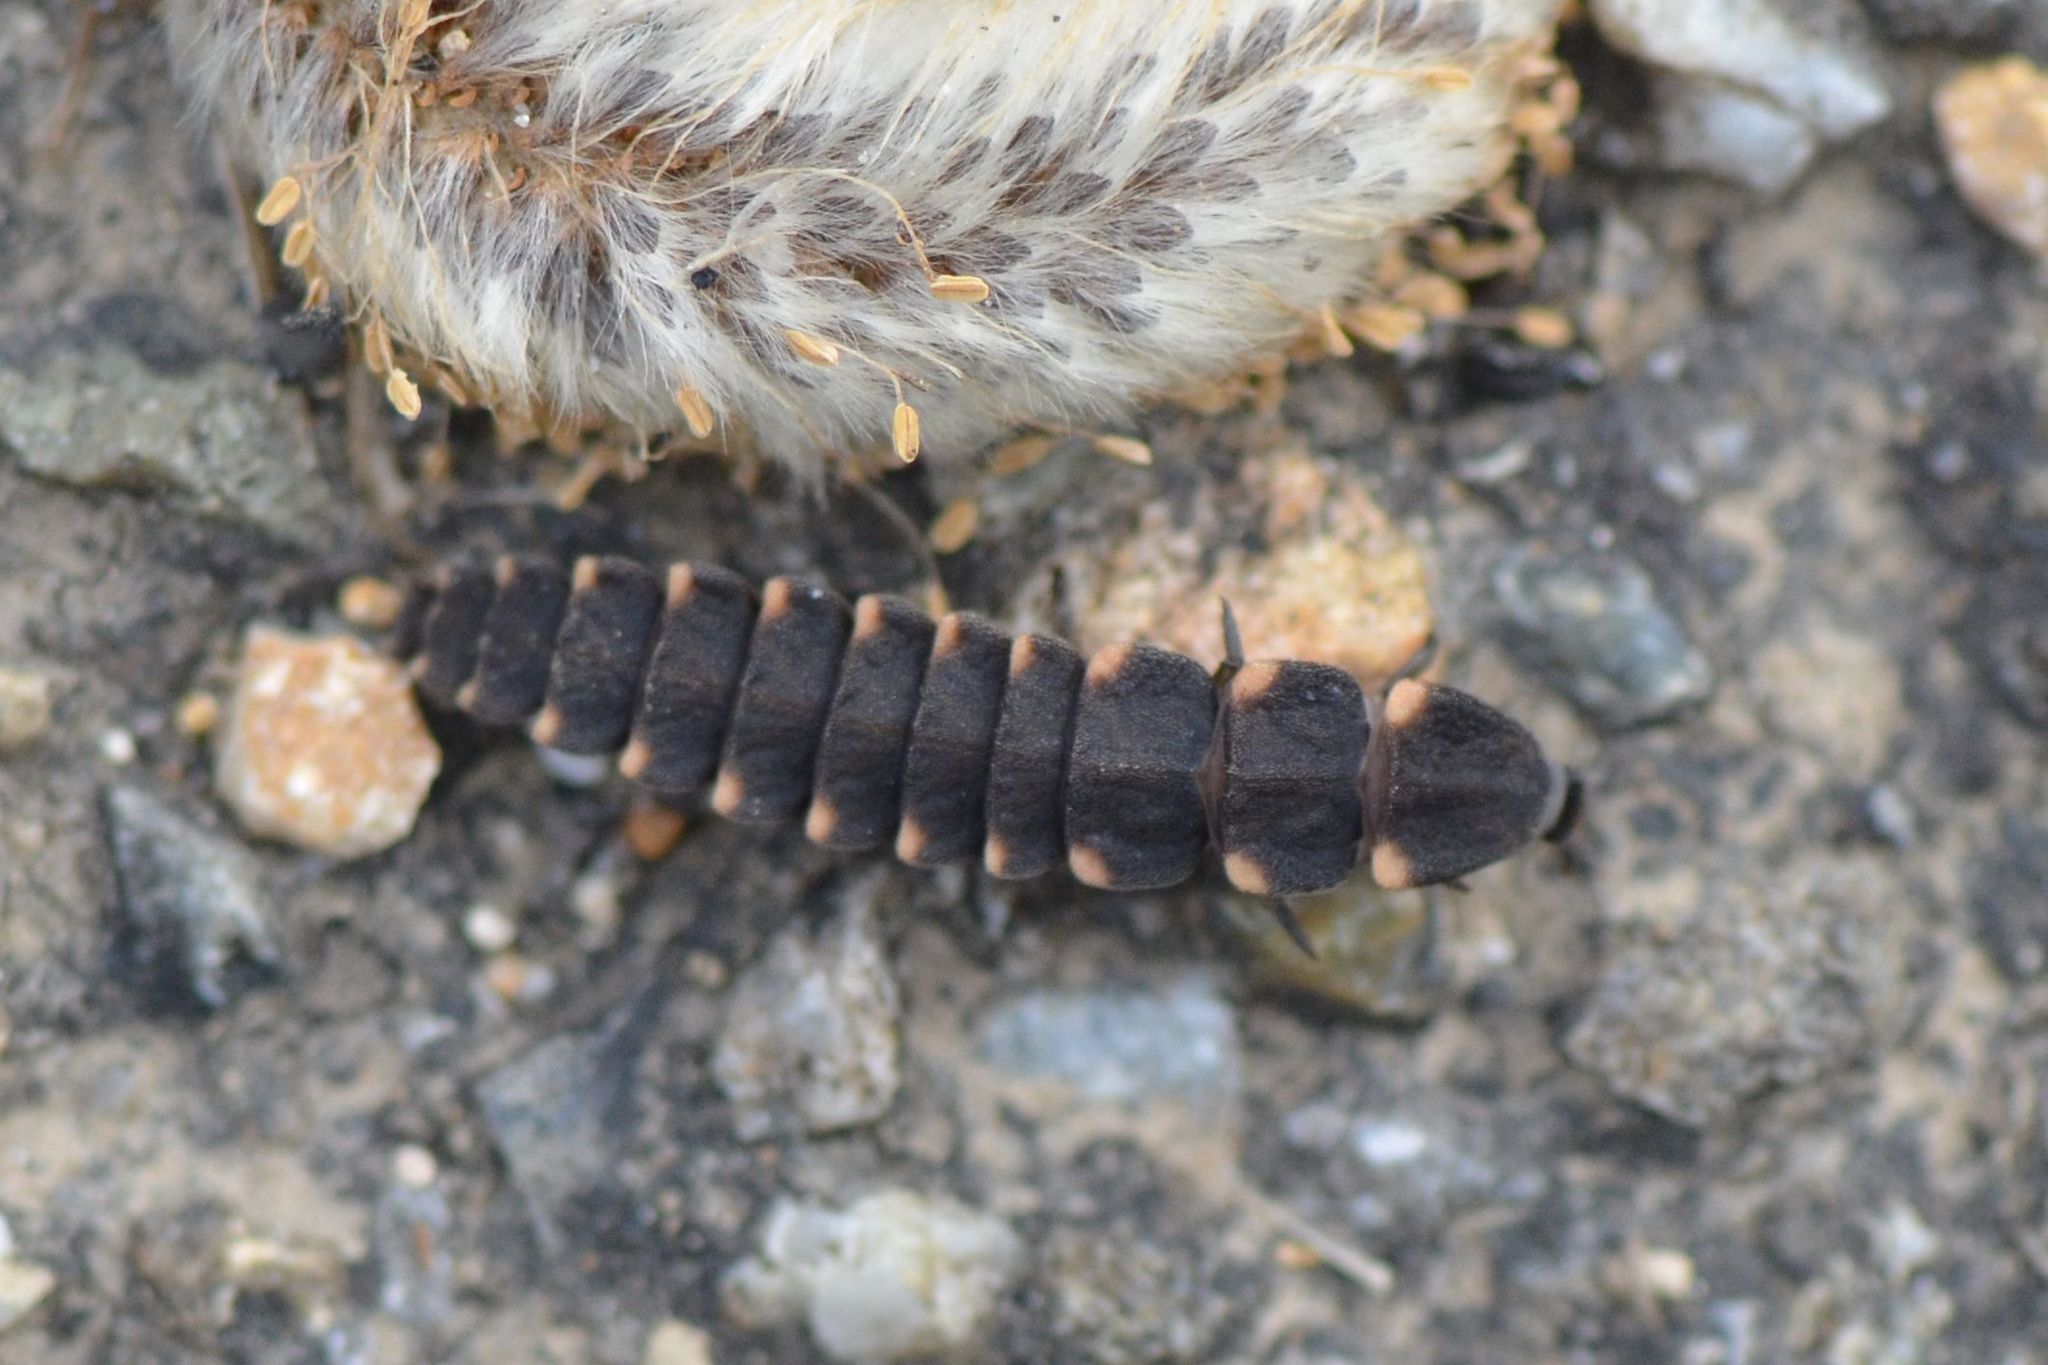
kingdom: Animalia
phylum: Arthropoda
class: Insecta
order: Coleoptera
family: Lampyridae
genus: Lampyris
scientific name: Lampyris noctiluca
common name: Glow-worm
